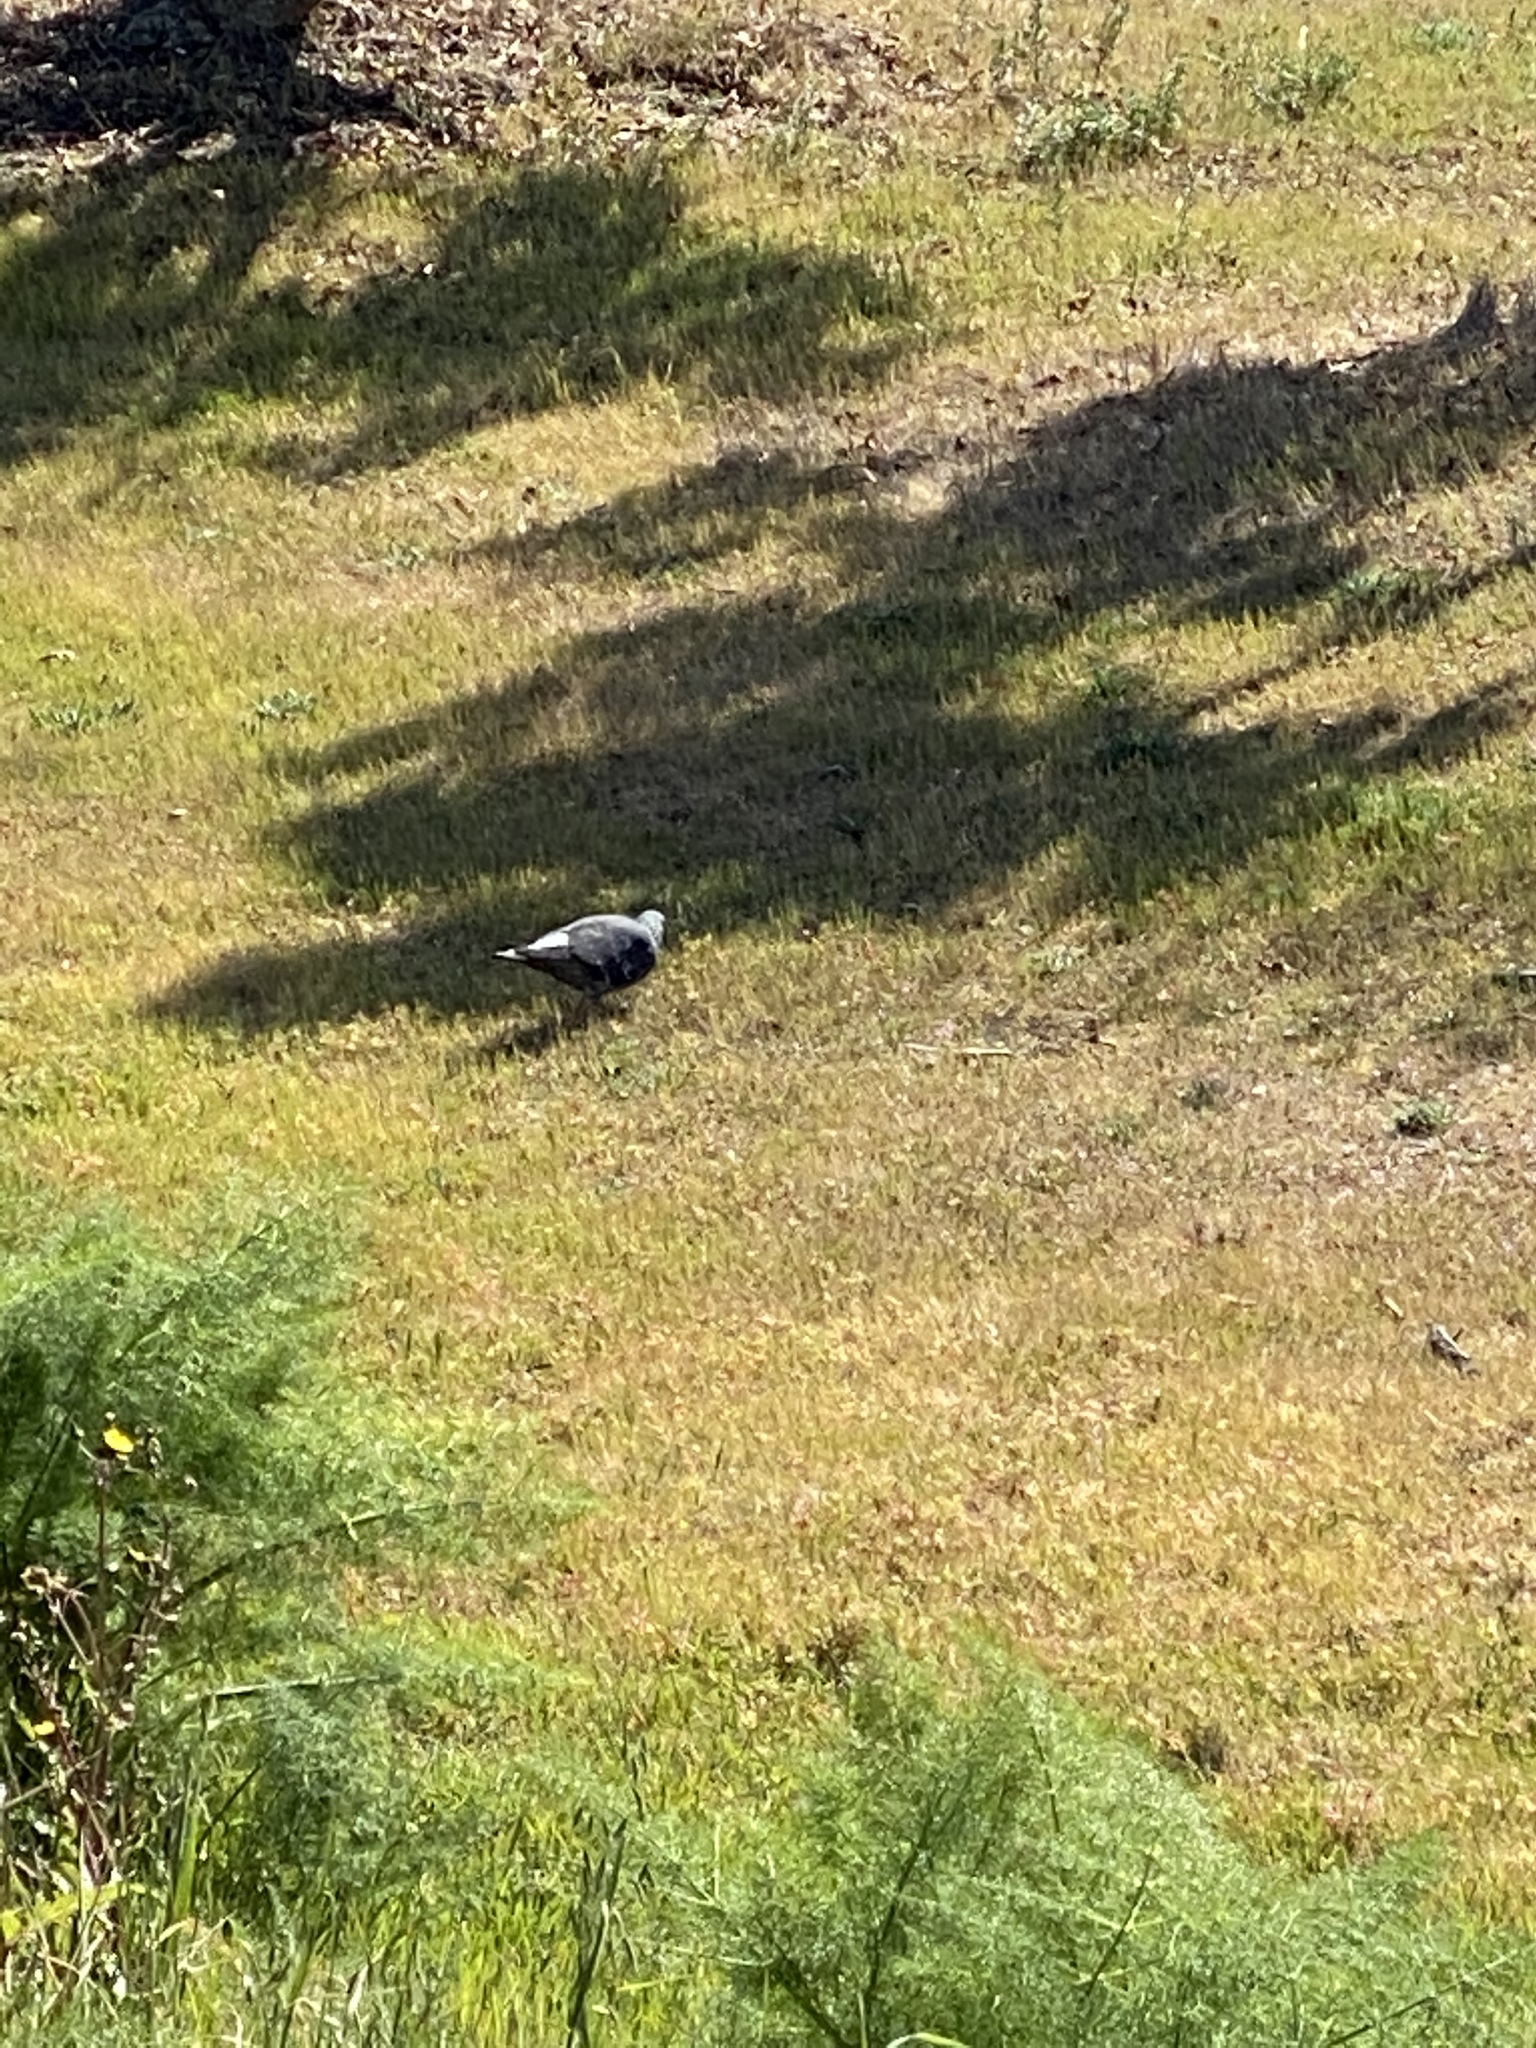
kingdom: Animalia
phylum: Chordata
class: Aves
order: Columbiformes
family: Columbidae
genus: Columba
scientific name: Columba livia
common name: Rock pigeon
